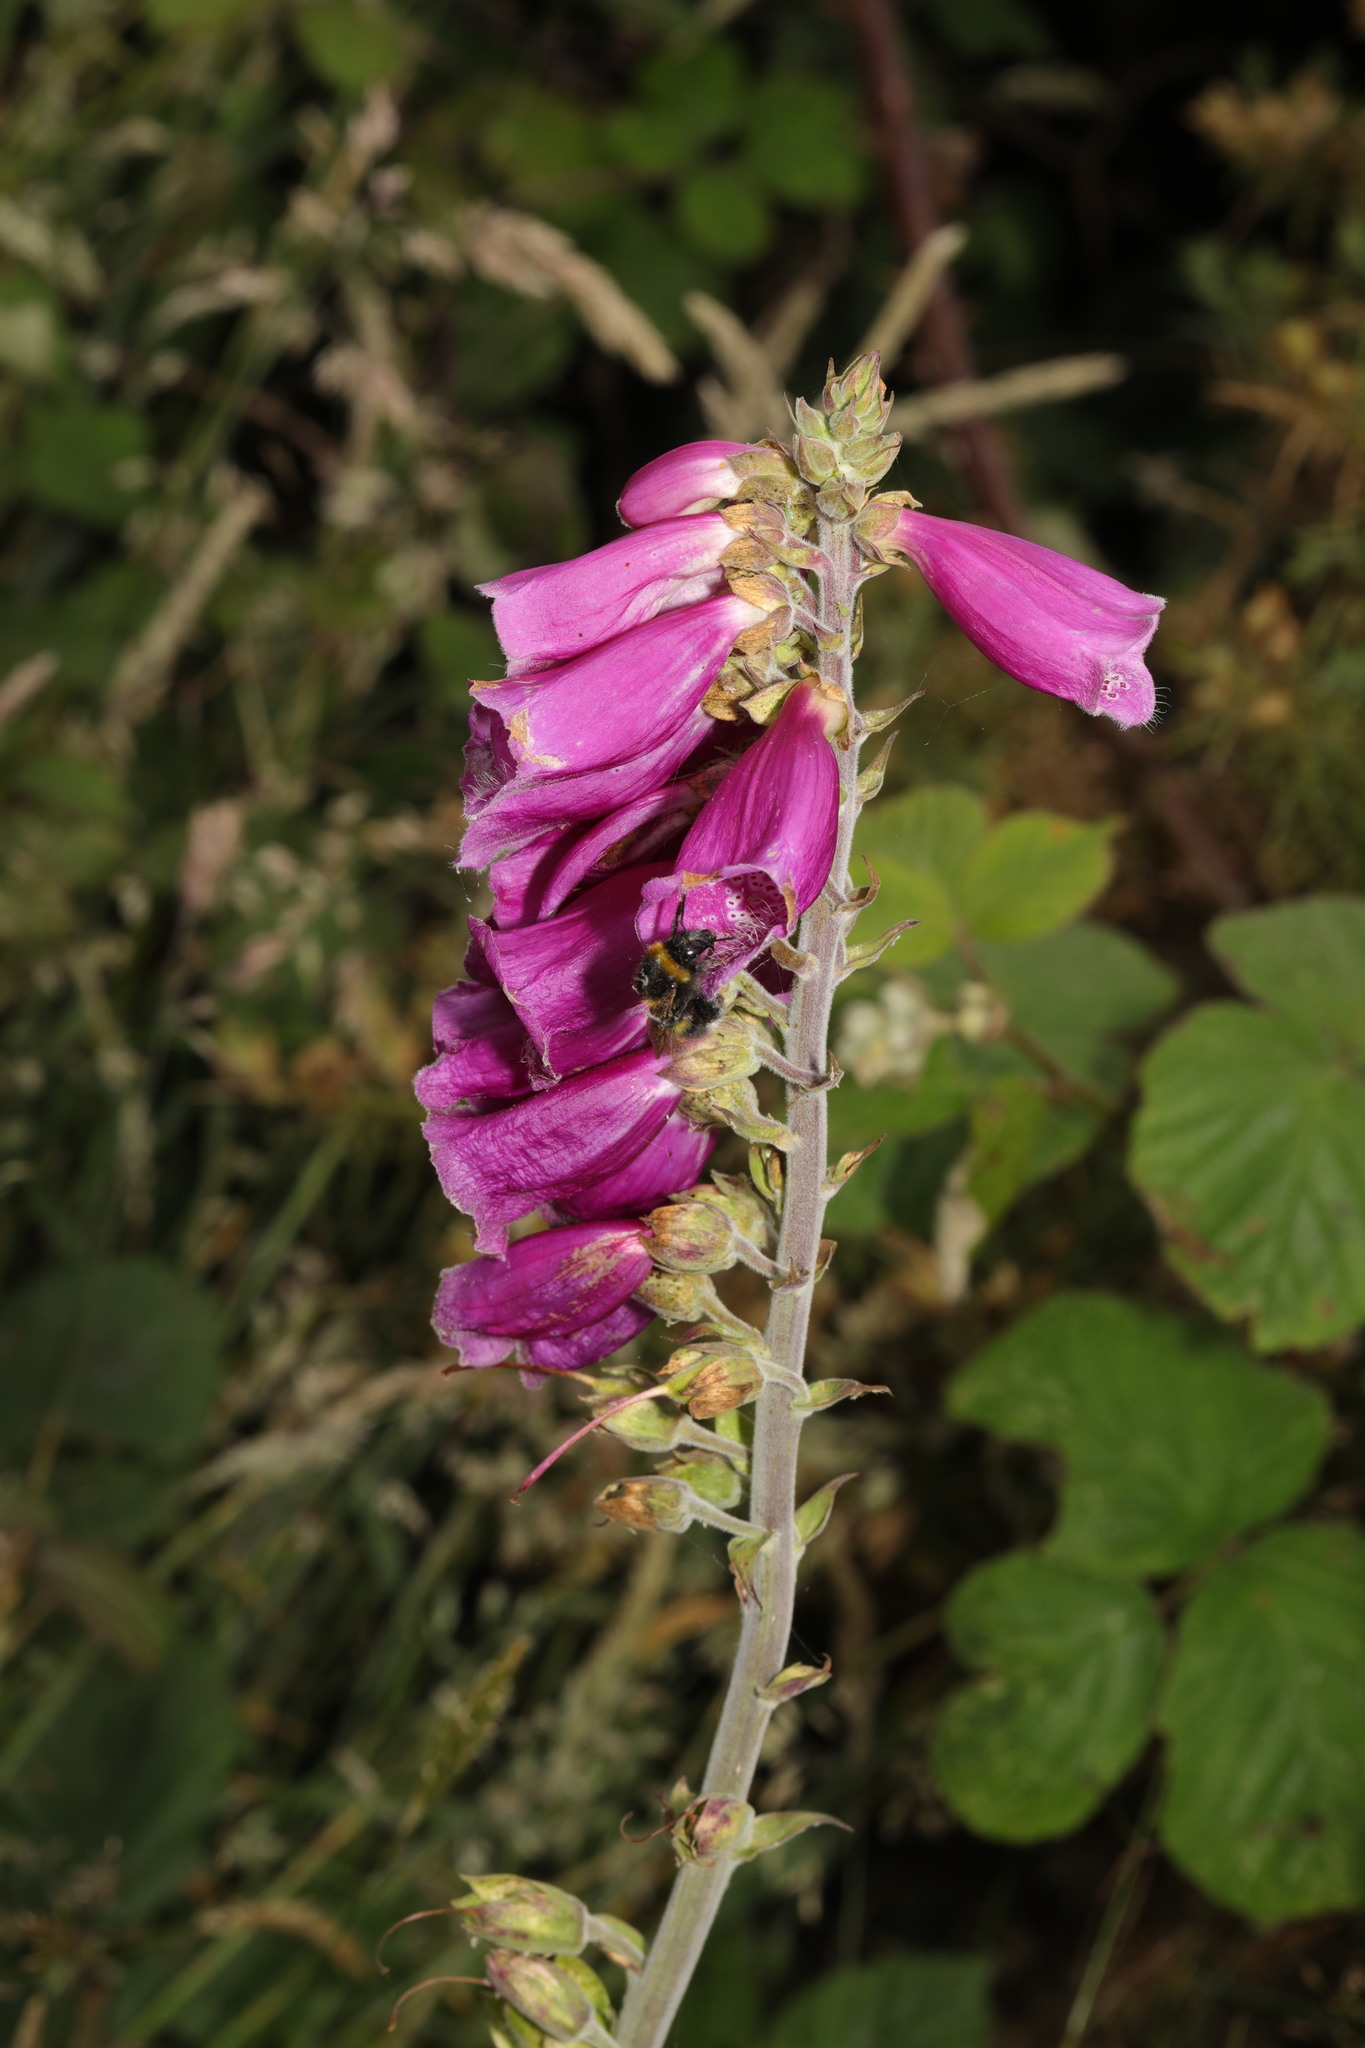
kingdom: Plantae
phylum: Tracheophyta
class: Magnoliopsida
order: Lamiales
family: Plantaginaceae
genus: Digitalis
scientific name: Digitalis purpurea
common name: Foxglove
